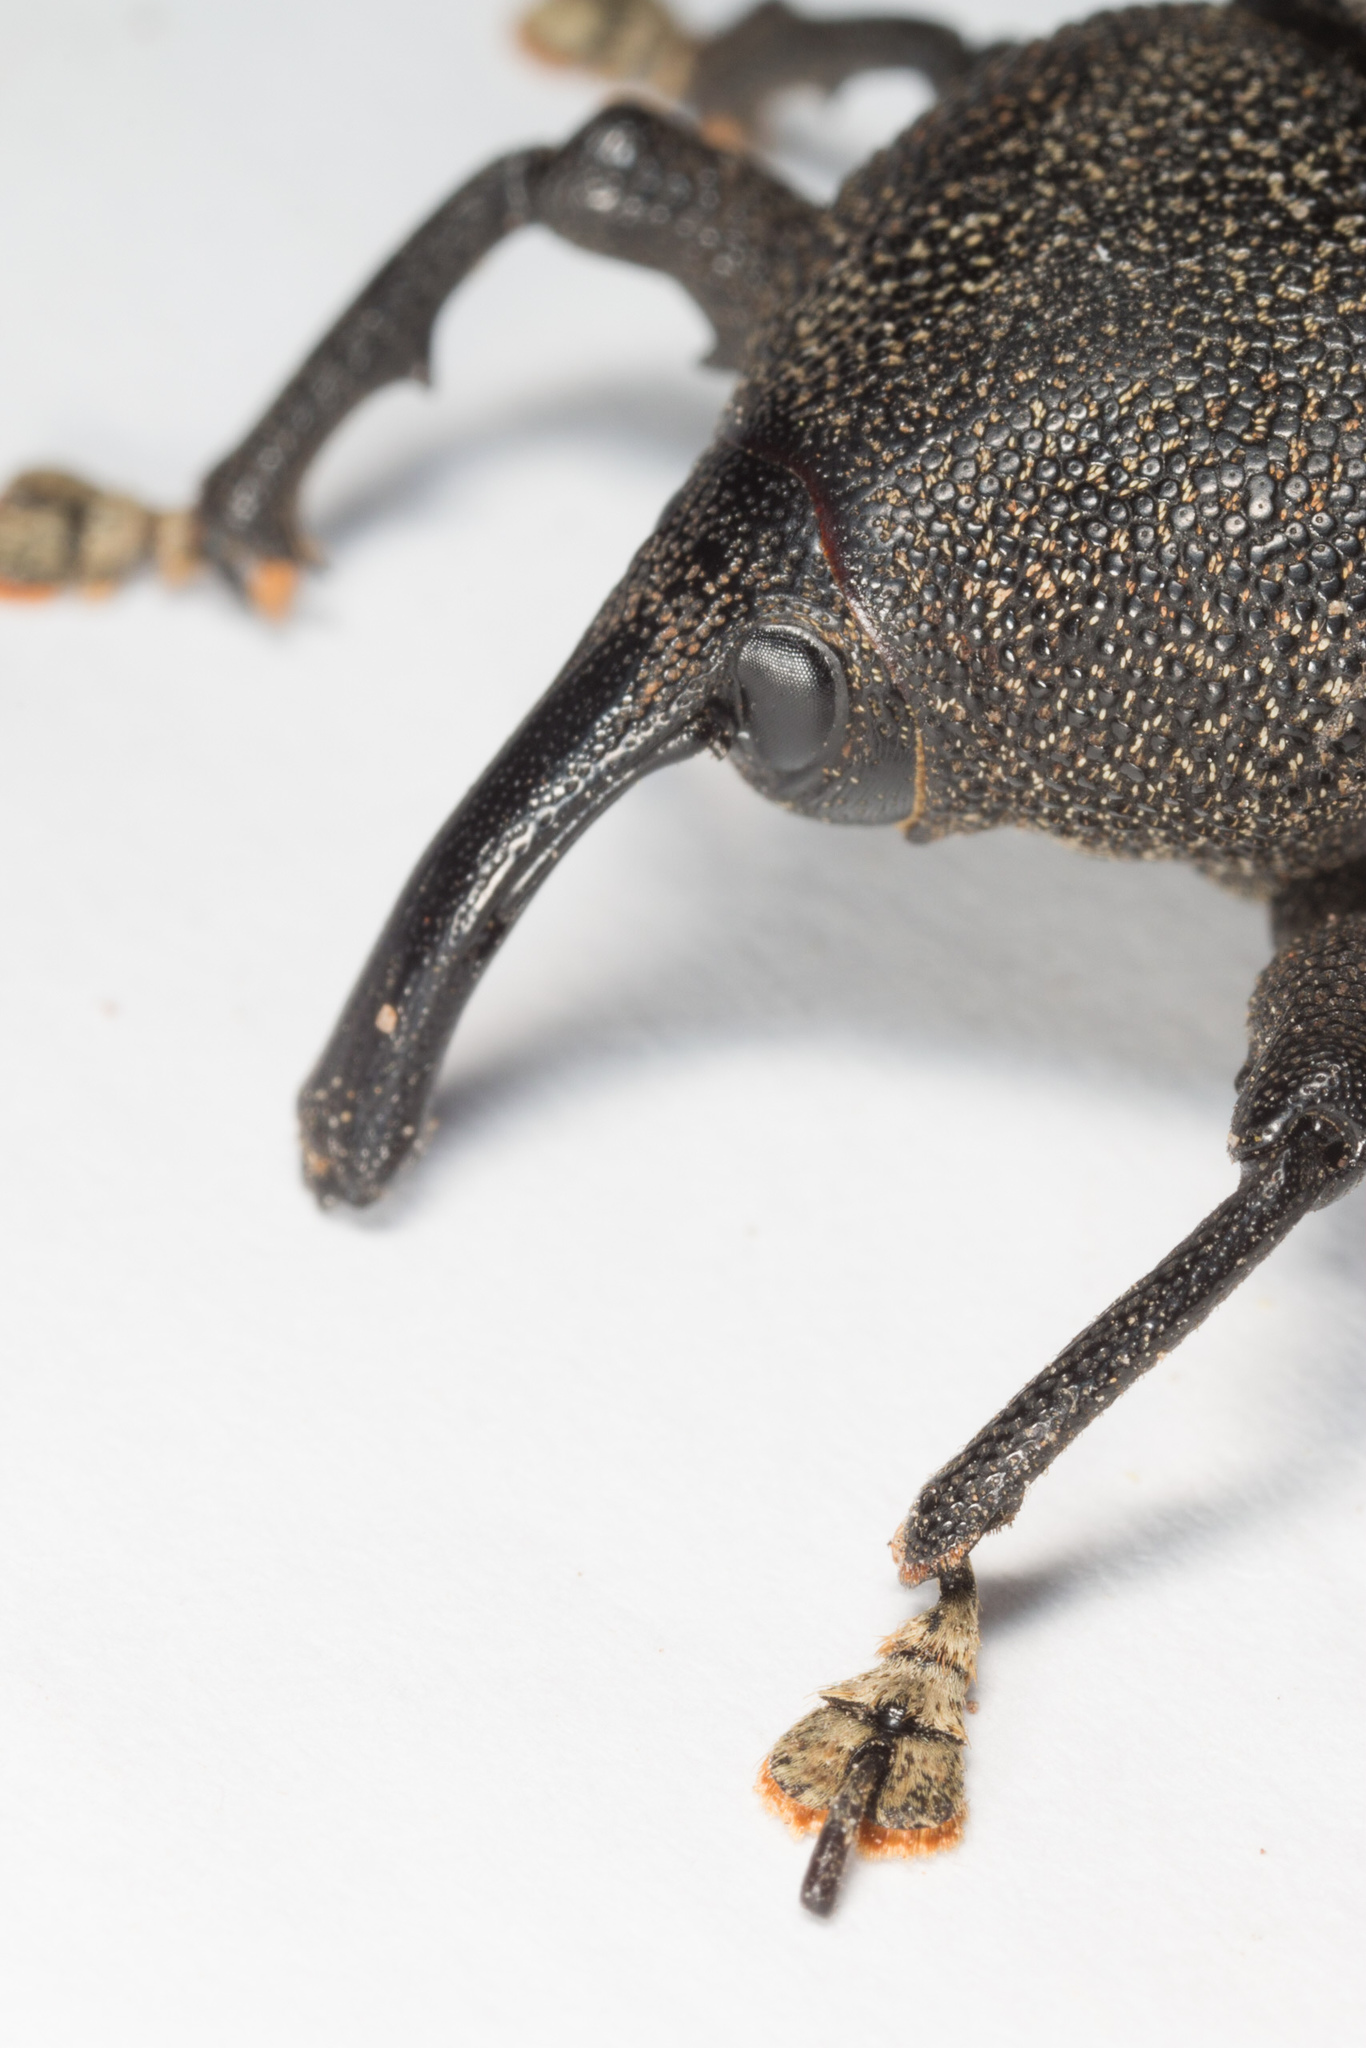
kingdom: Animalia
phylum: Arthropoda
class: Insecta
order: Coleoptera
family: Curculionidae
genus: Homalinotus
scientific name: Homalinotus coriaceus
